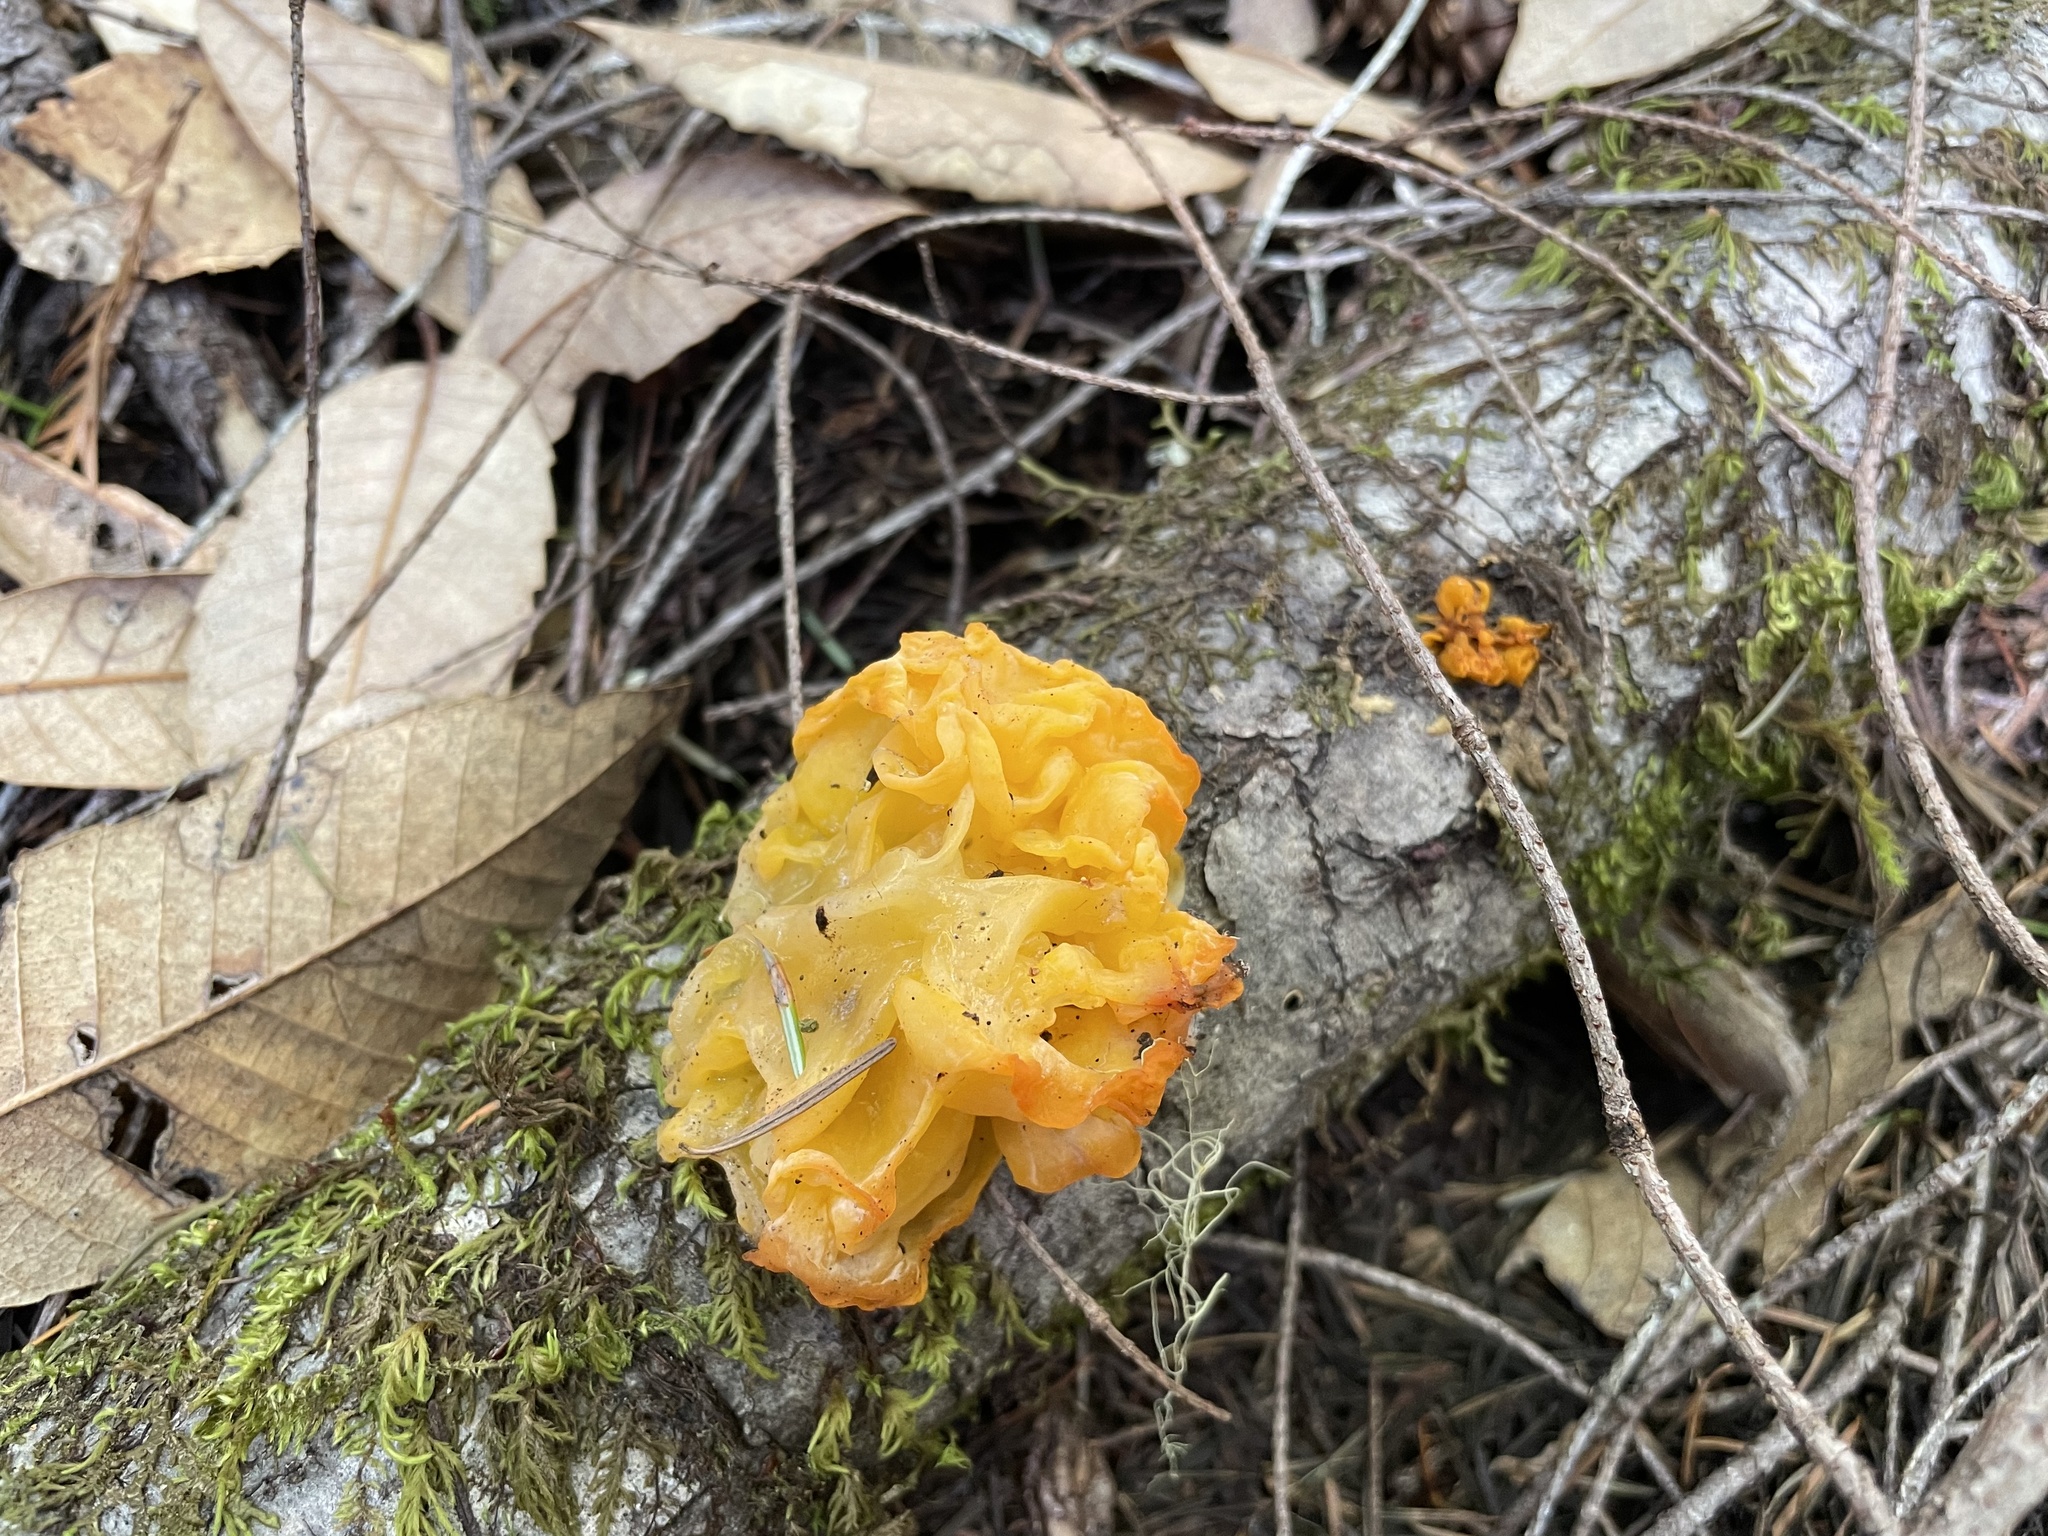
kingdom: Fungi
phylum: Basidiomycota
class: Tremellomycetes
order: Tremellales
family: Naemateliaceae
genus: Naematelia
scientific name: Naematelia aurantia
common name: Golden ear
